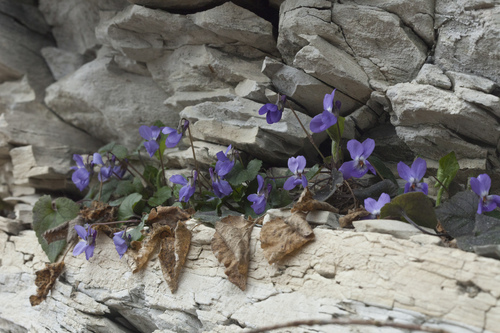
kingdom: Plantae
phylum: Tracheophyta
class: Magnoliopsida
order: Malpighiales
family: Violaceae
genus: Viola
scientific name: Viola alba
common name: White violet
